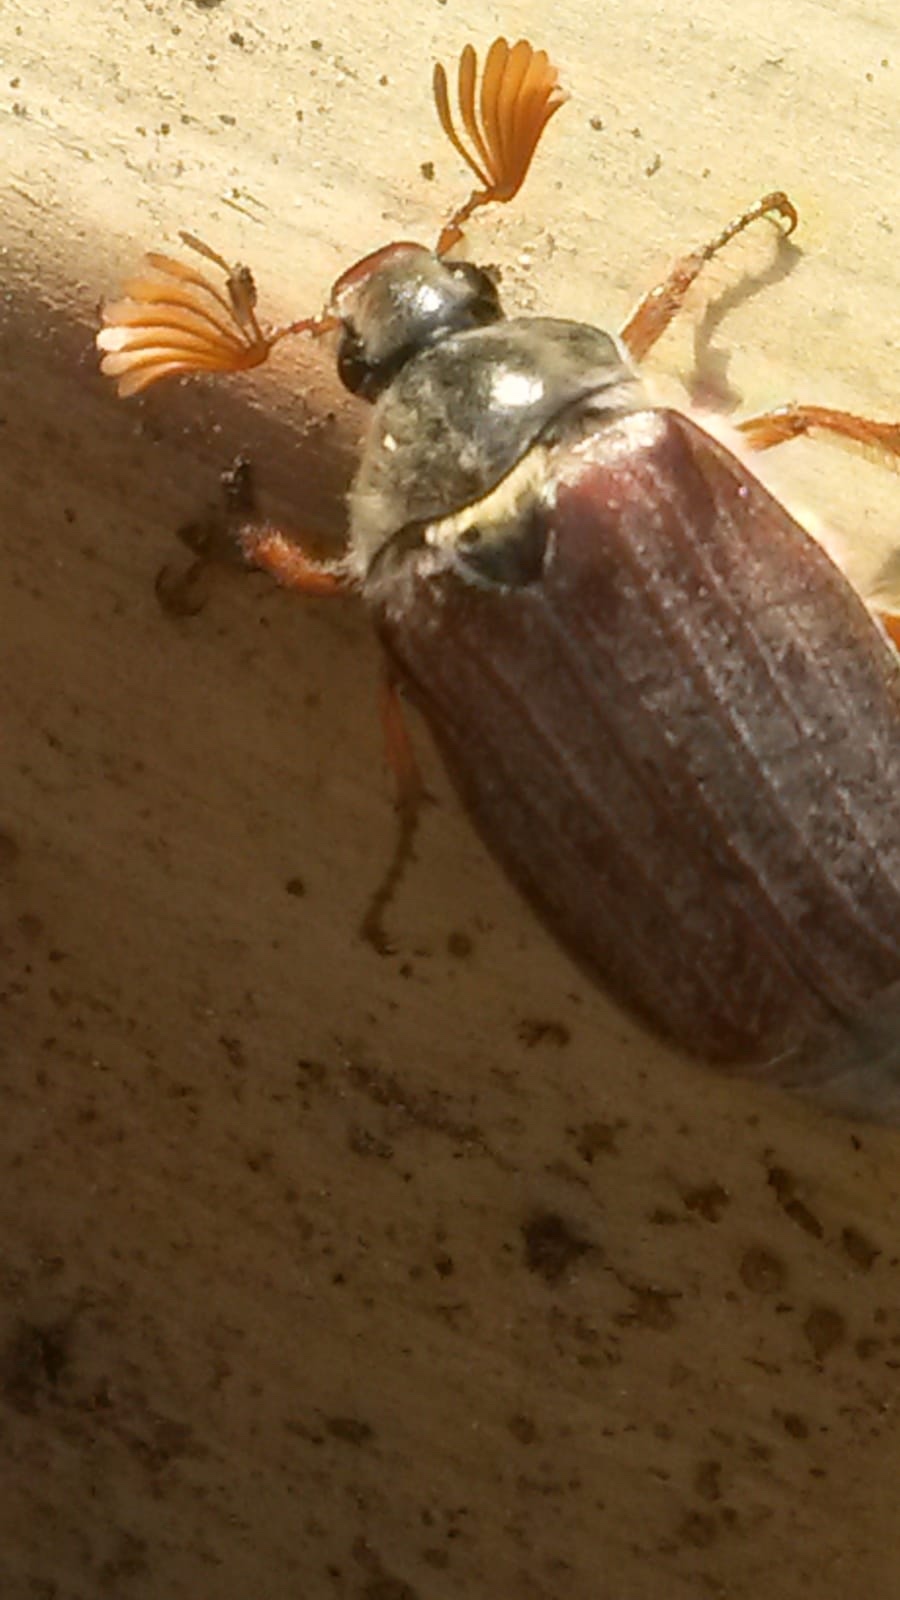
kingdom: Animalia
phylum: Arthropoda
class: Insecta
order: Coleoptera
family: Scarabaeidae
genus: Melolontha
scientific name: Melolontha melolontha
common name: Cockchafer maybeetle
